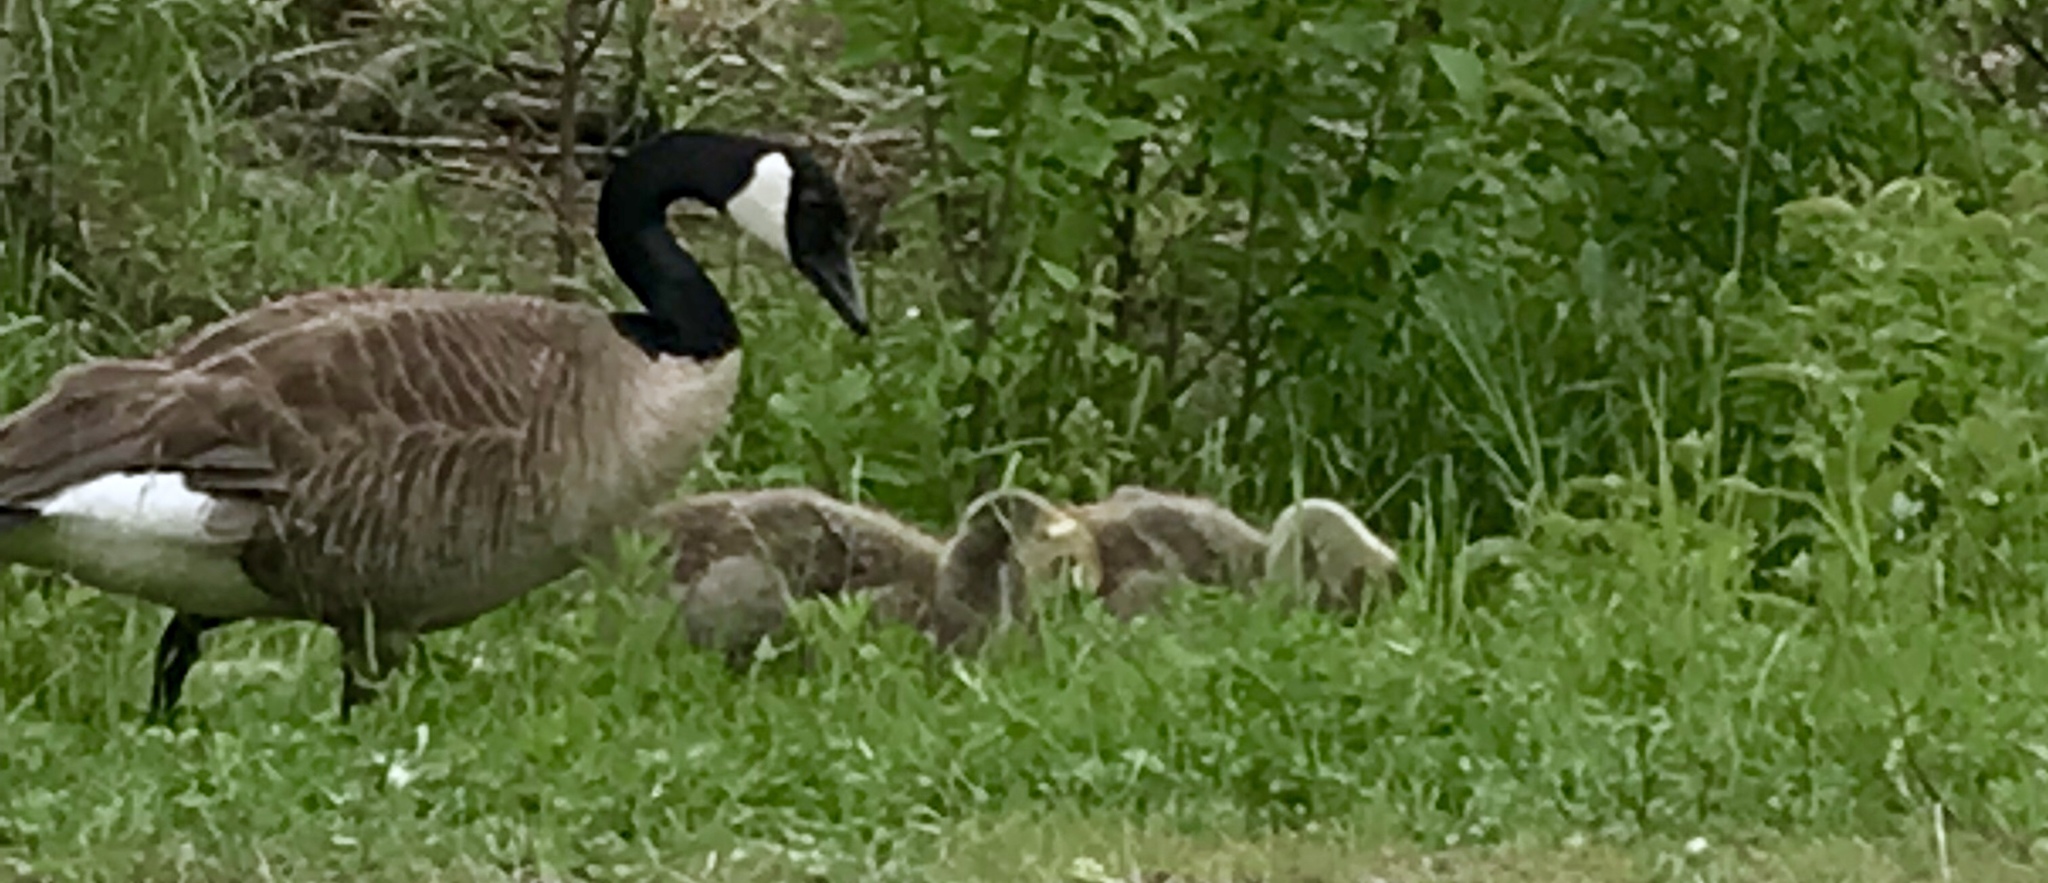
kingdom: Animalia
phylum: Chordata
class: Aves
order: Anseriformes
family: Anatidae
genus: Branta
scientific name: Branta canadensis
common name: Canada goose
